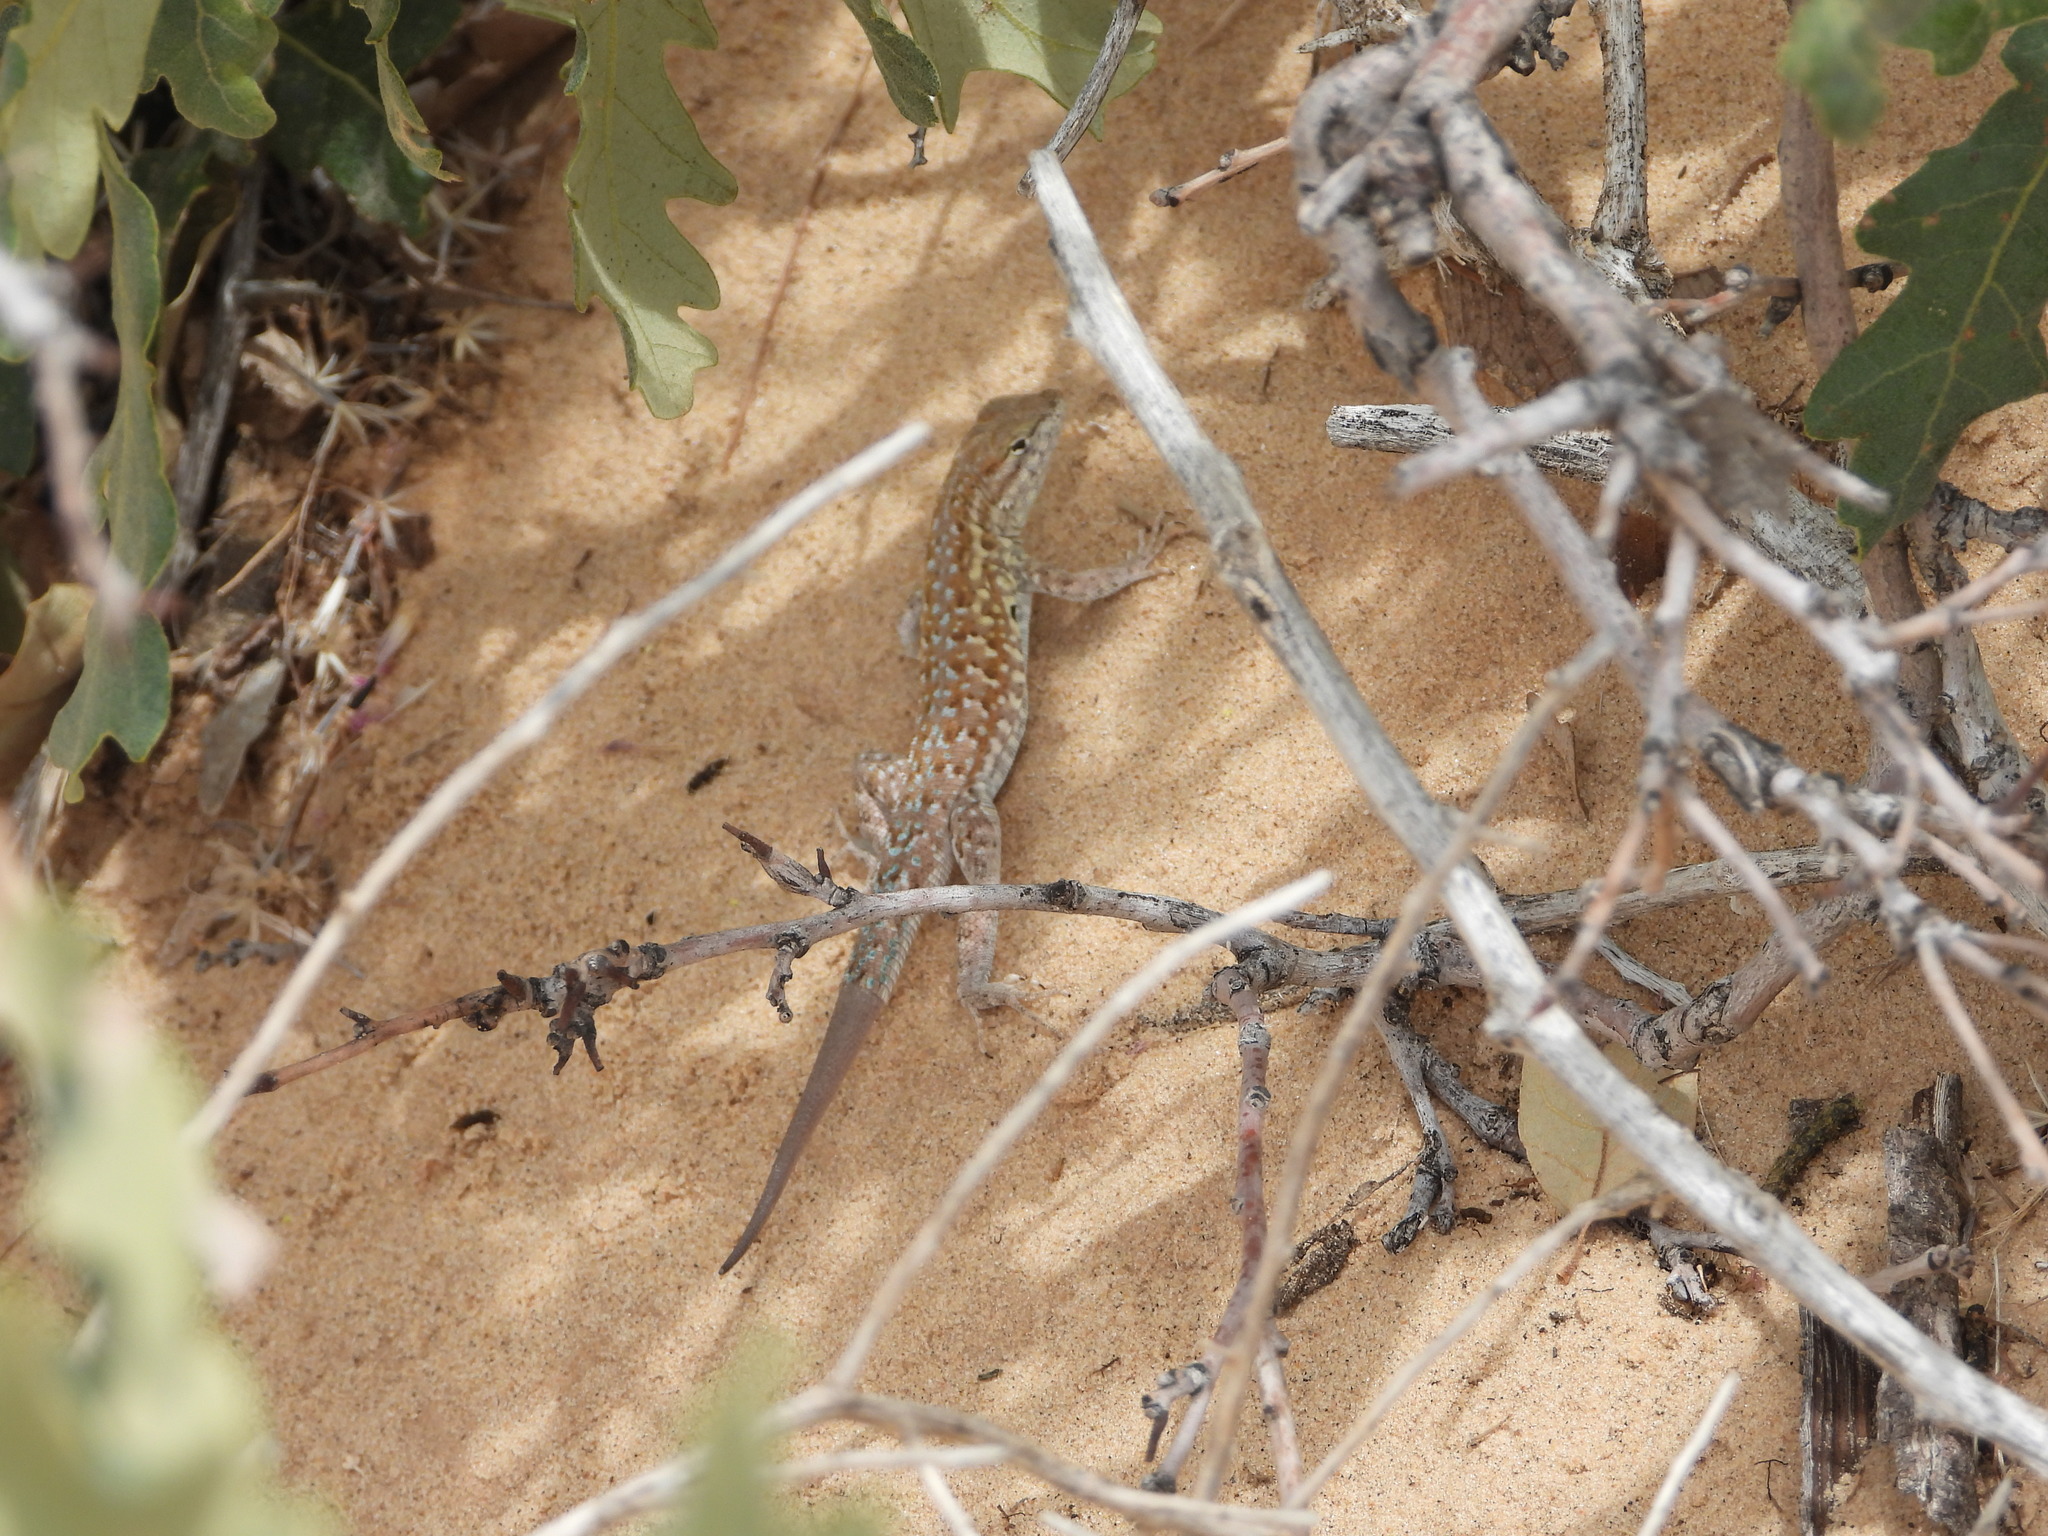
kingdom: Animalia
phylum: Chordata
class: Squamata
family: Phrynosomatidae
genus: Uta
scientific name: Uta stansburiana
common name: Side-blotched lizard
